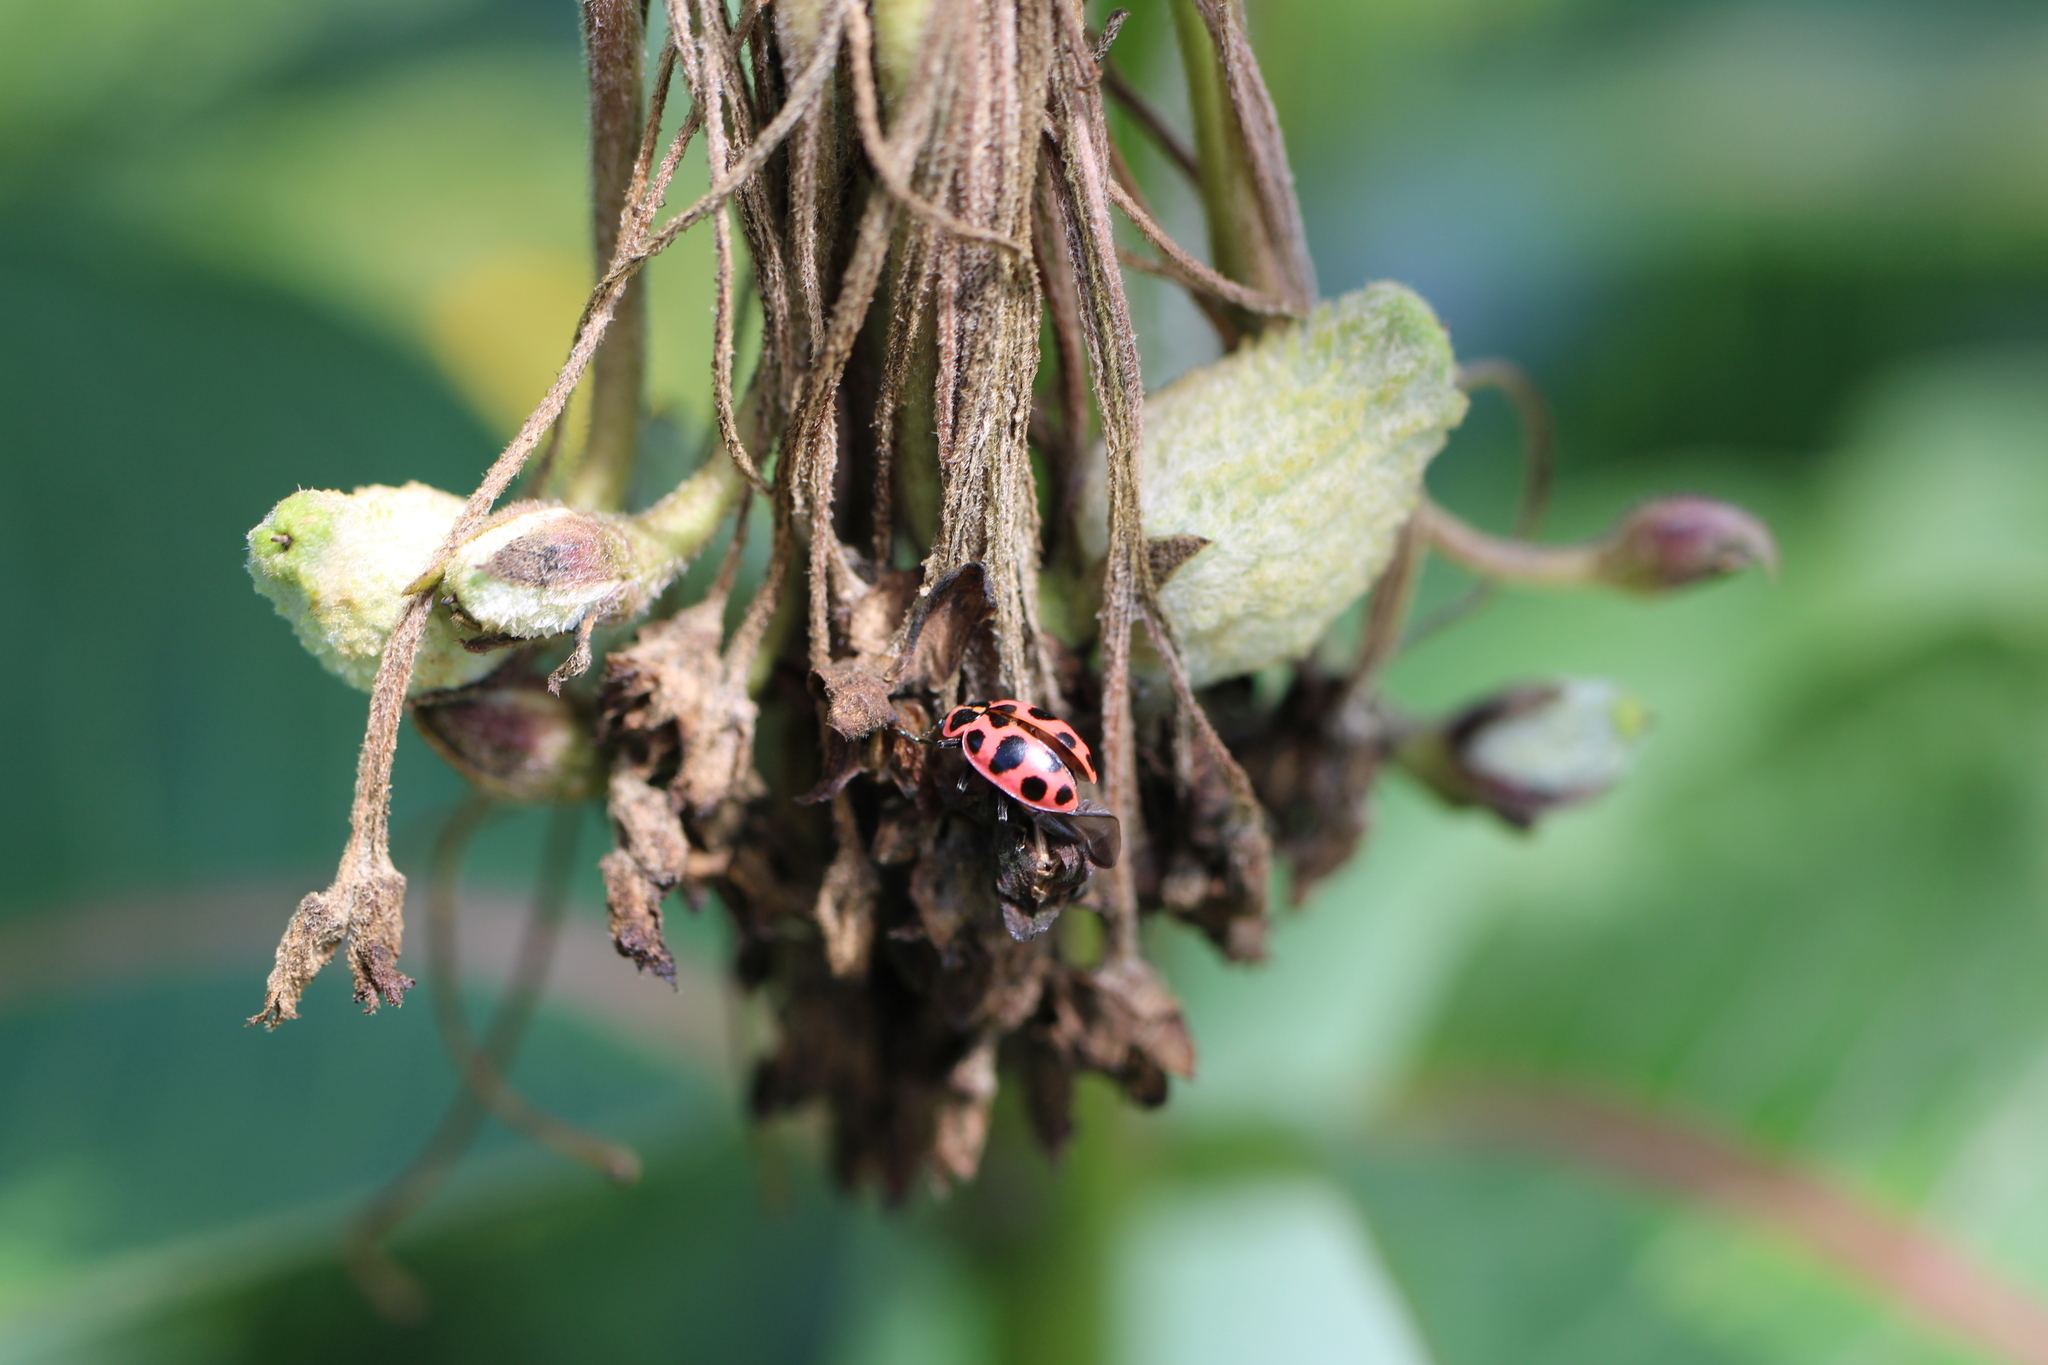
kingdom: Animalia
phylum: Arthropoda
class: Insecta
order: Coleoptera
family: Coccinellidae
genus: Coleomegilla
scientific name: Coleomegilla maculata
